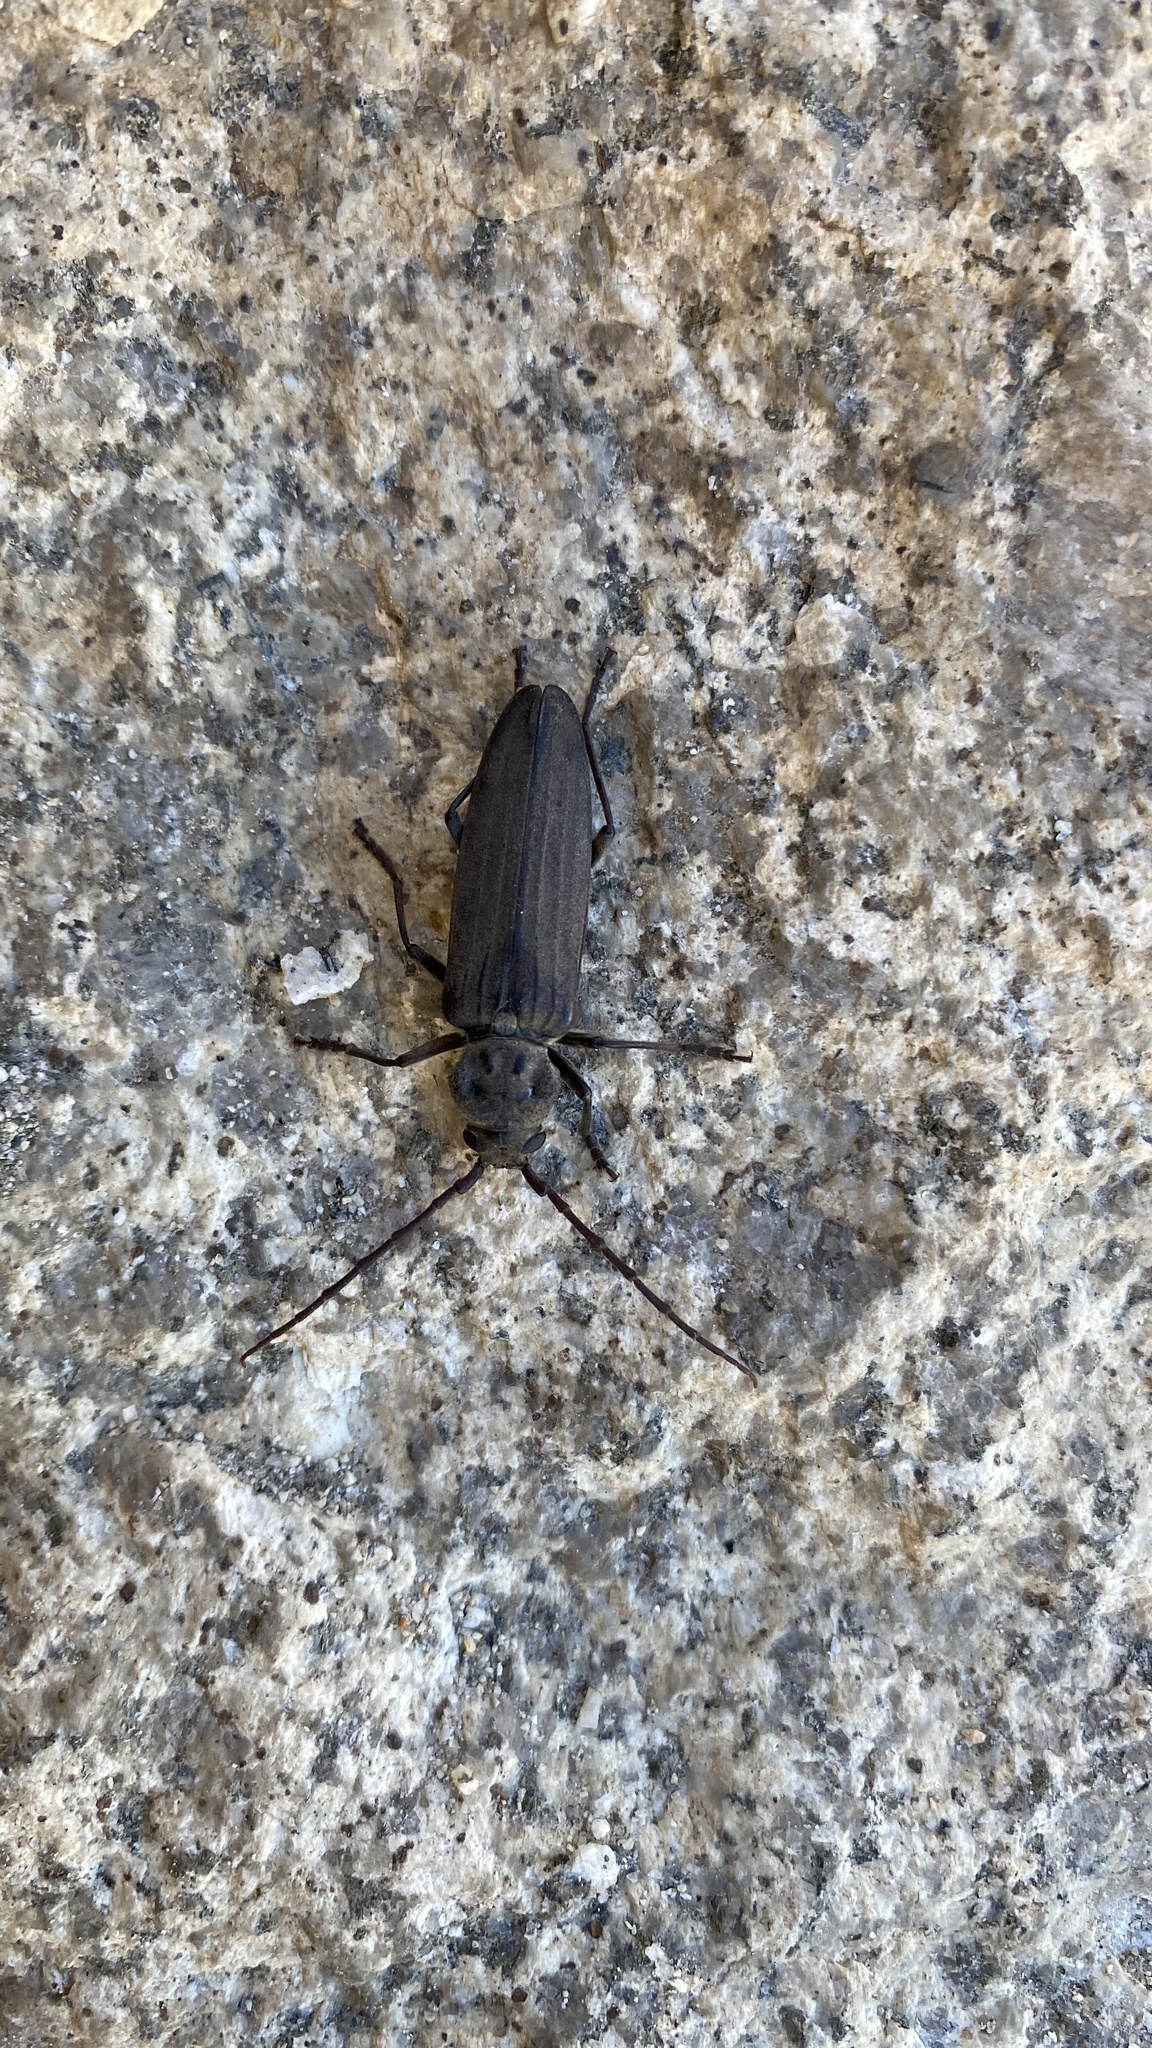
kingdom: Animalia
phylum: Arthropoda
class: Insecta
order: Coleoptera
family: Cerambycidae
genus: Arhopalus
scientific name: Arhopalus asperatus
